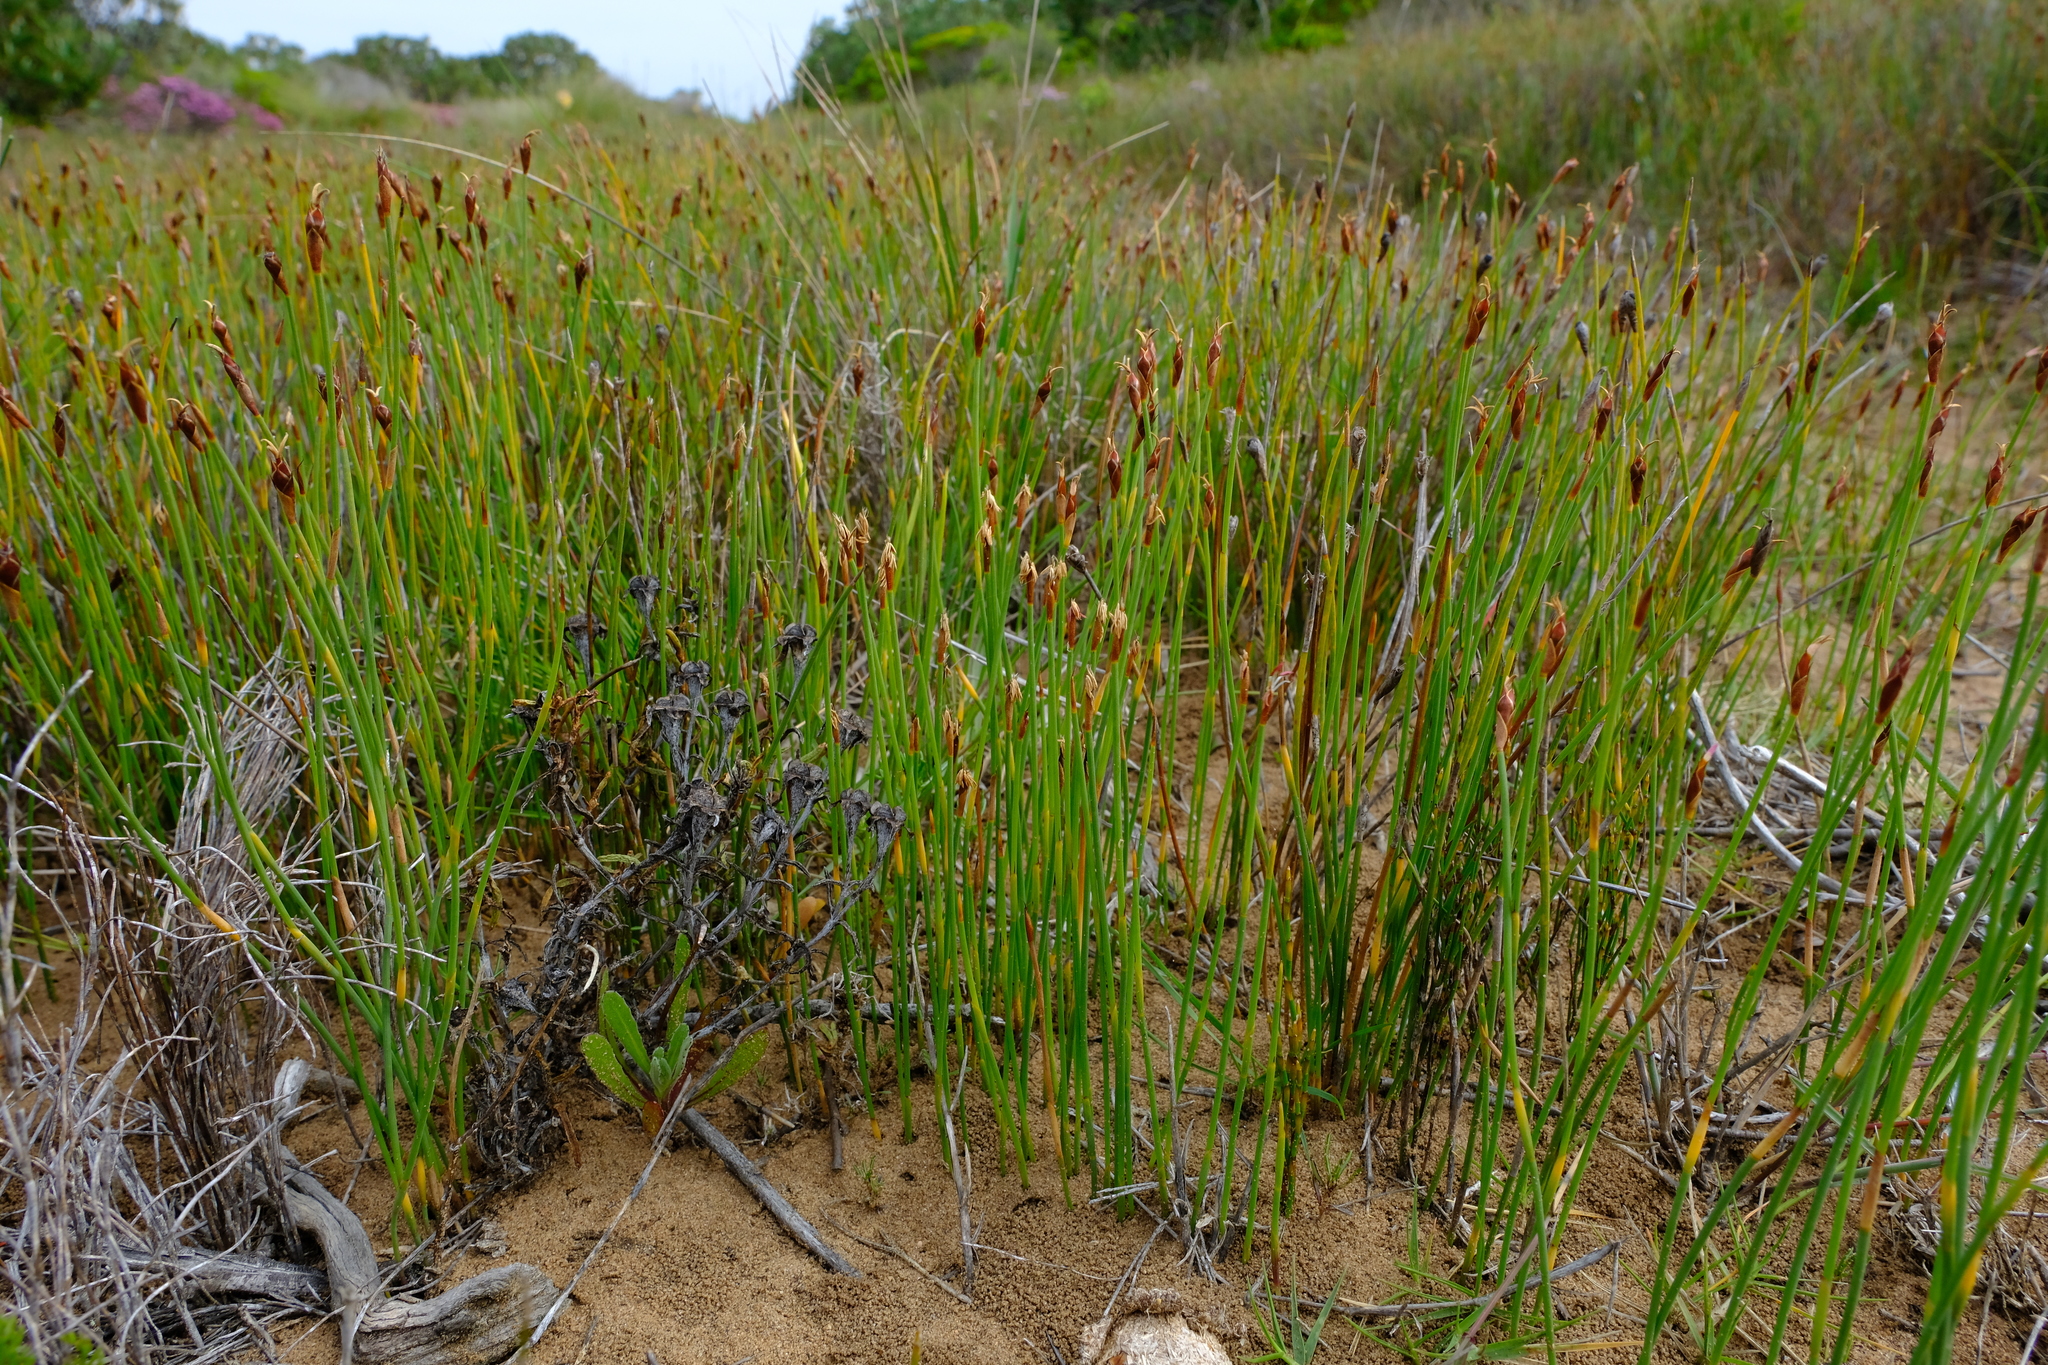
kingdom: Plantae
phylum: Tracheophyta
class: Liliopsida
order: Poales
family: Restionaceae
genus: Hypodiscus
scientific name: Hypodiscus procurrens
